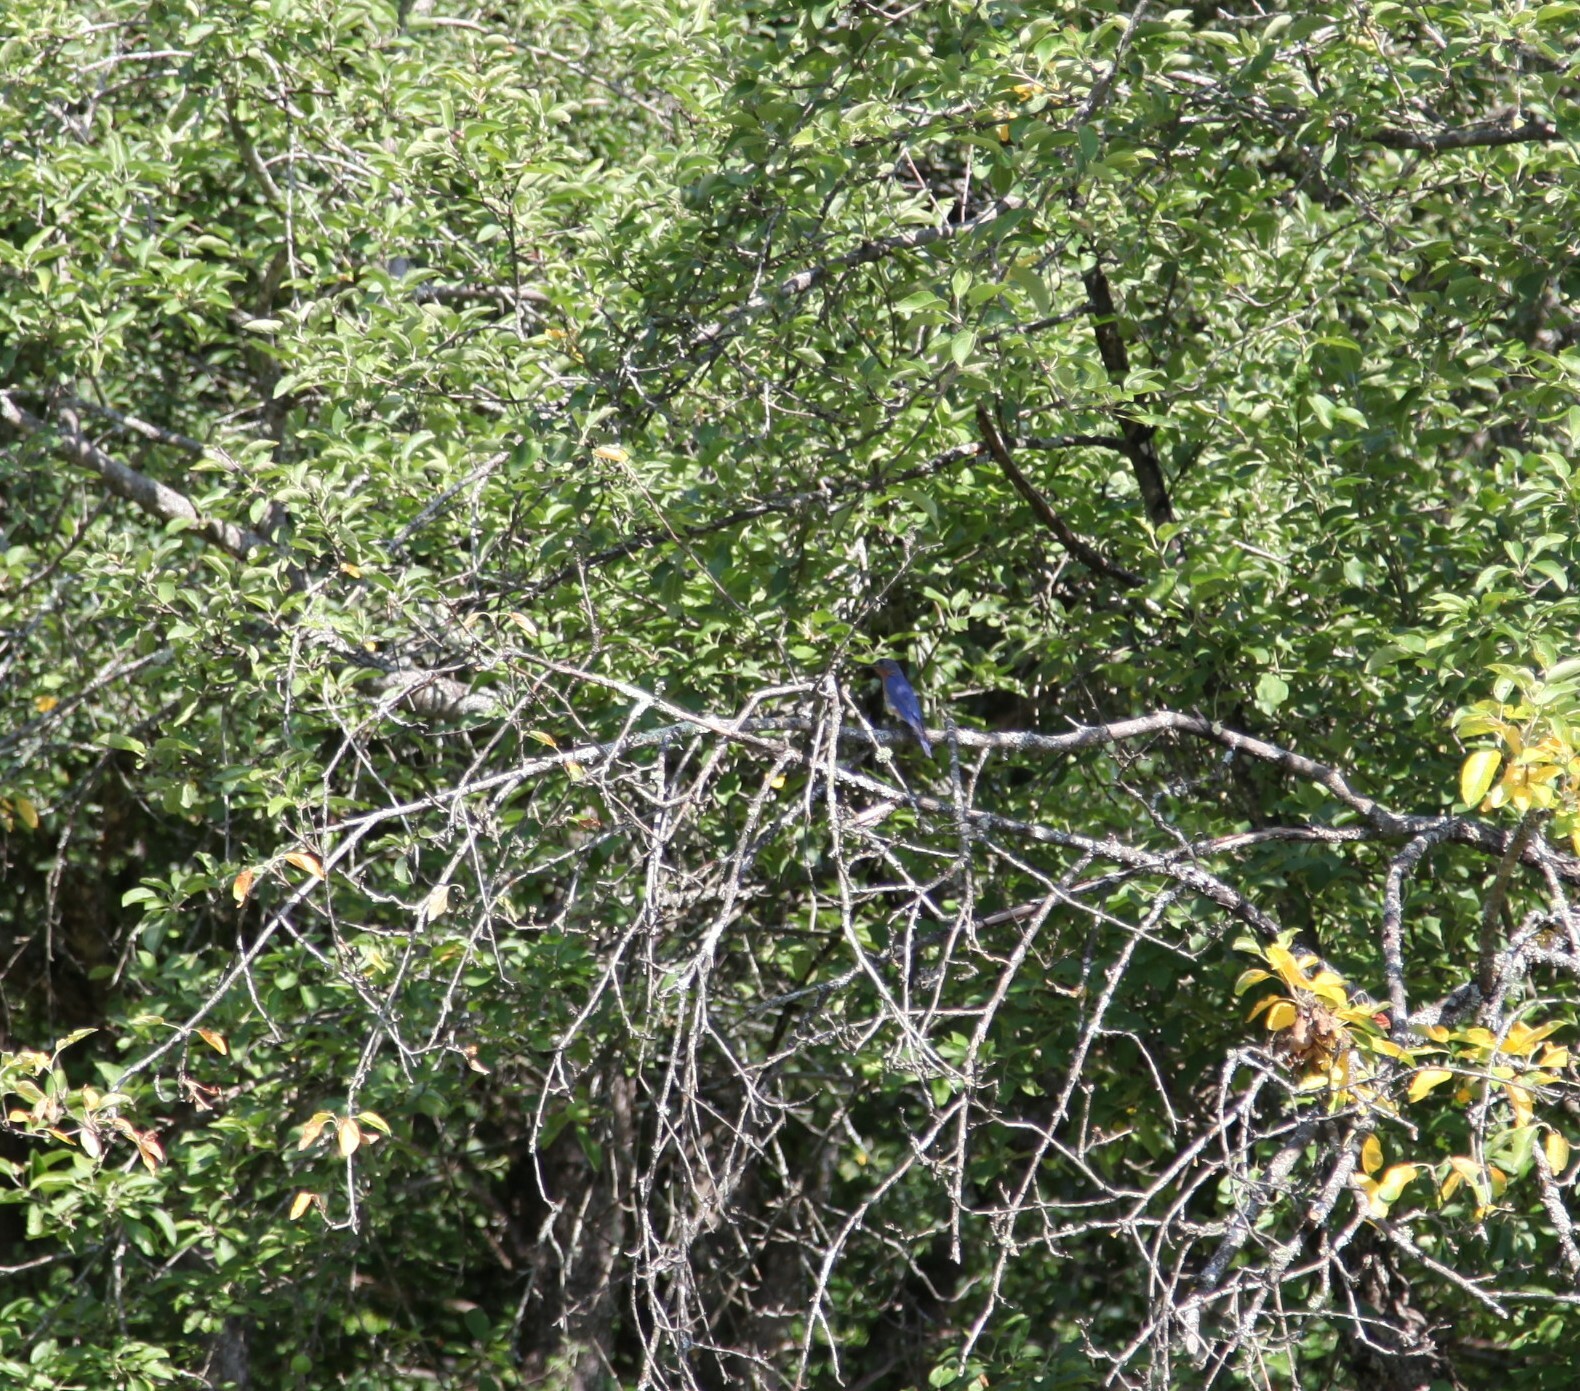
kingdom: Animalia
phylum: Chordata
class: Aves
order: Passeriformes
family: Turdidae
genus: Sialia
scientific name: Sialia sialis
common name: Eastern bluebird
